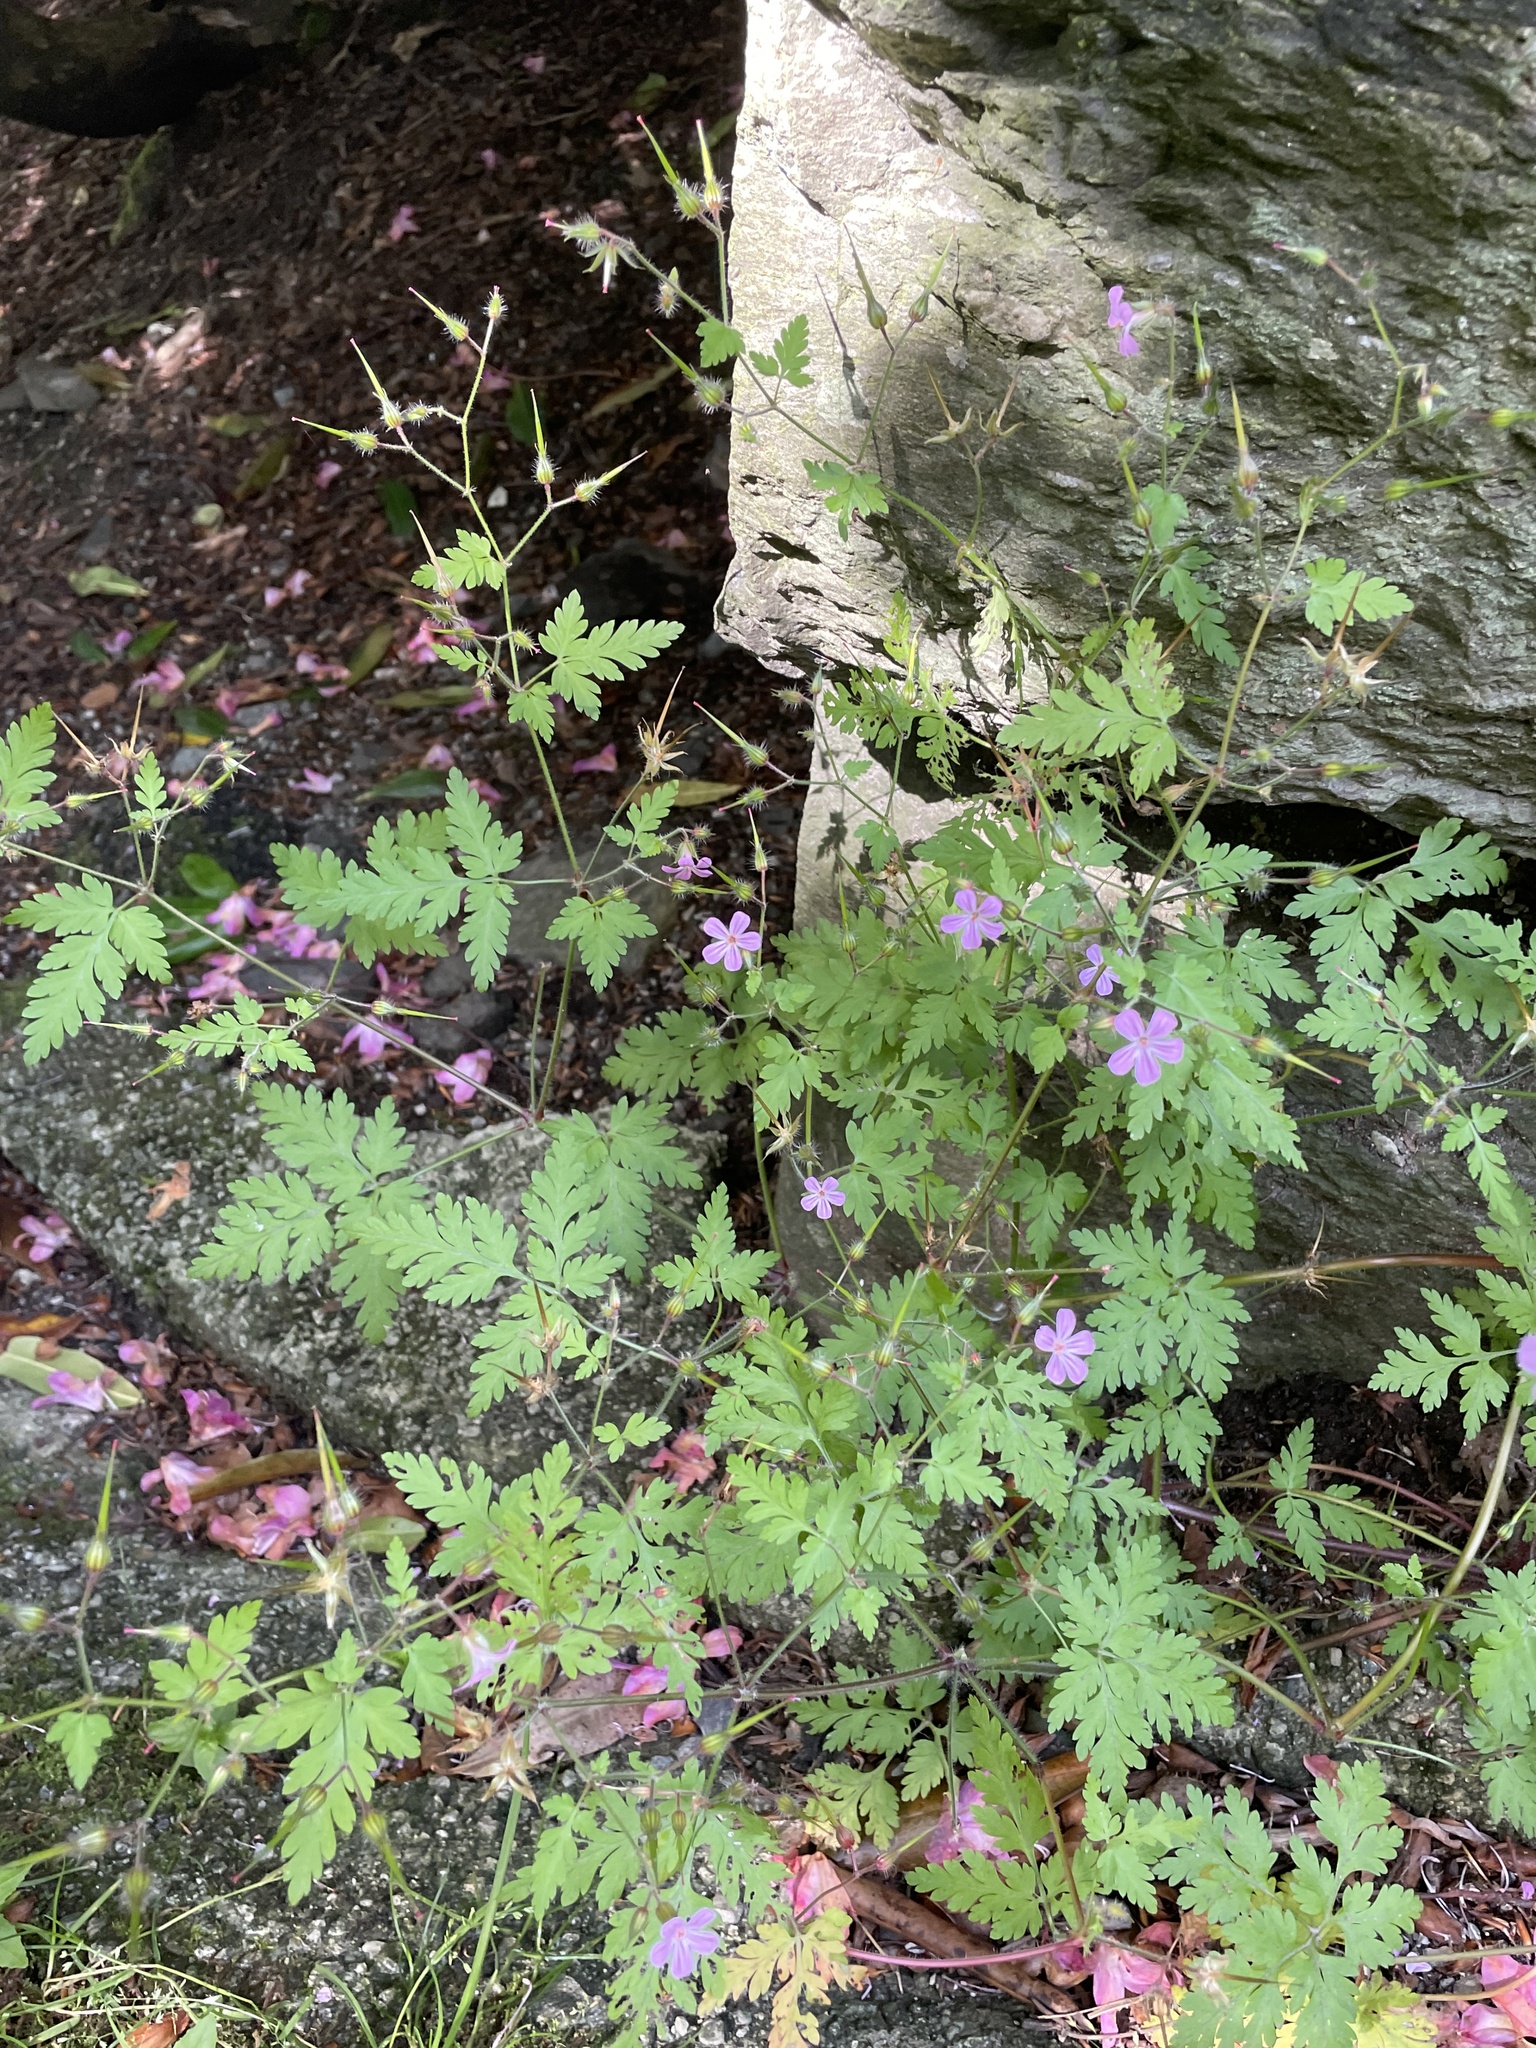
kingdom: Plantae
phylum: Tracheophyta
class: Magnoliopsida
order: Geraniales
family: Geraniaceae
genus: Geranium
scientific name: Geranium robertianum
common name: Herb-robert
